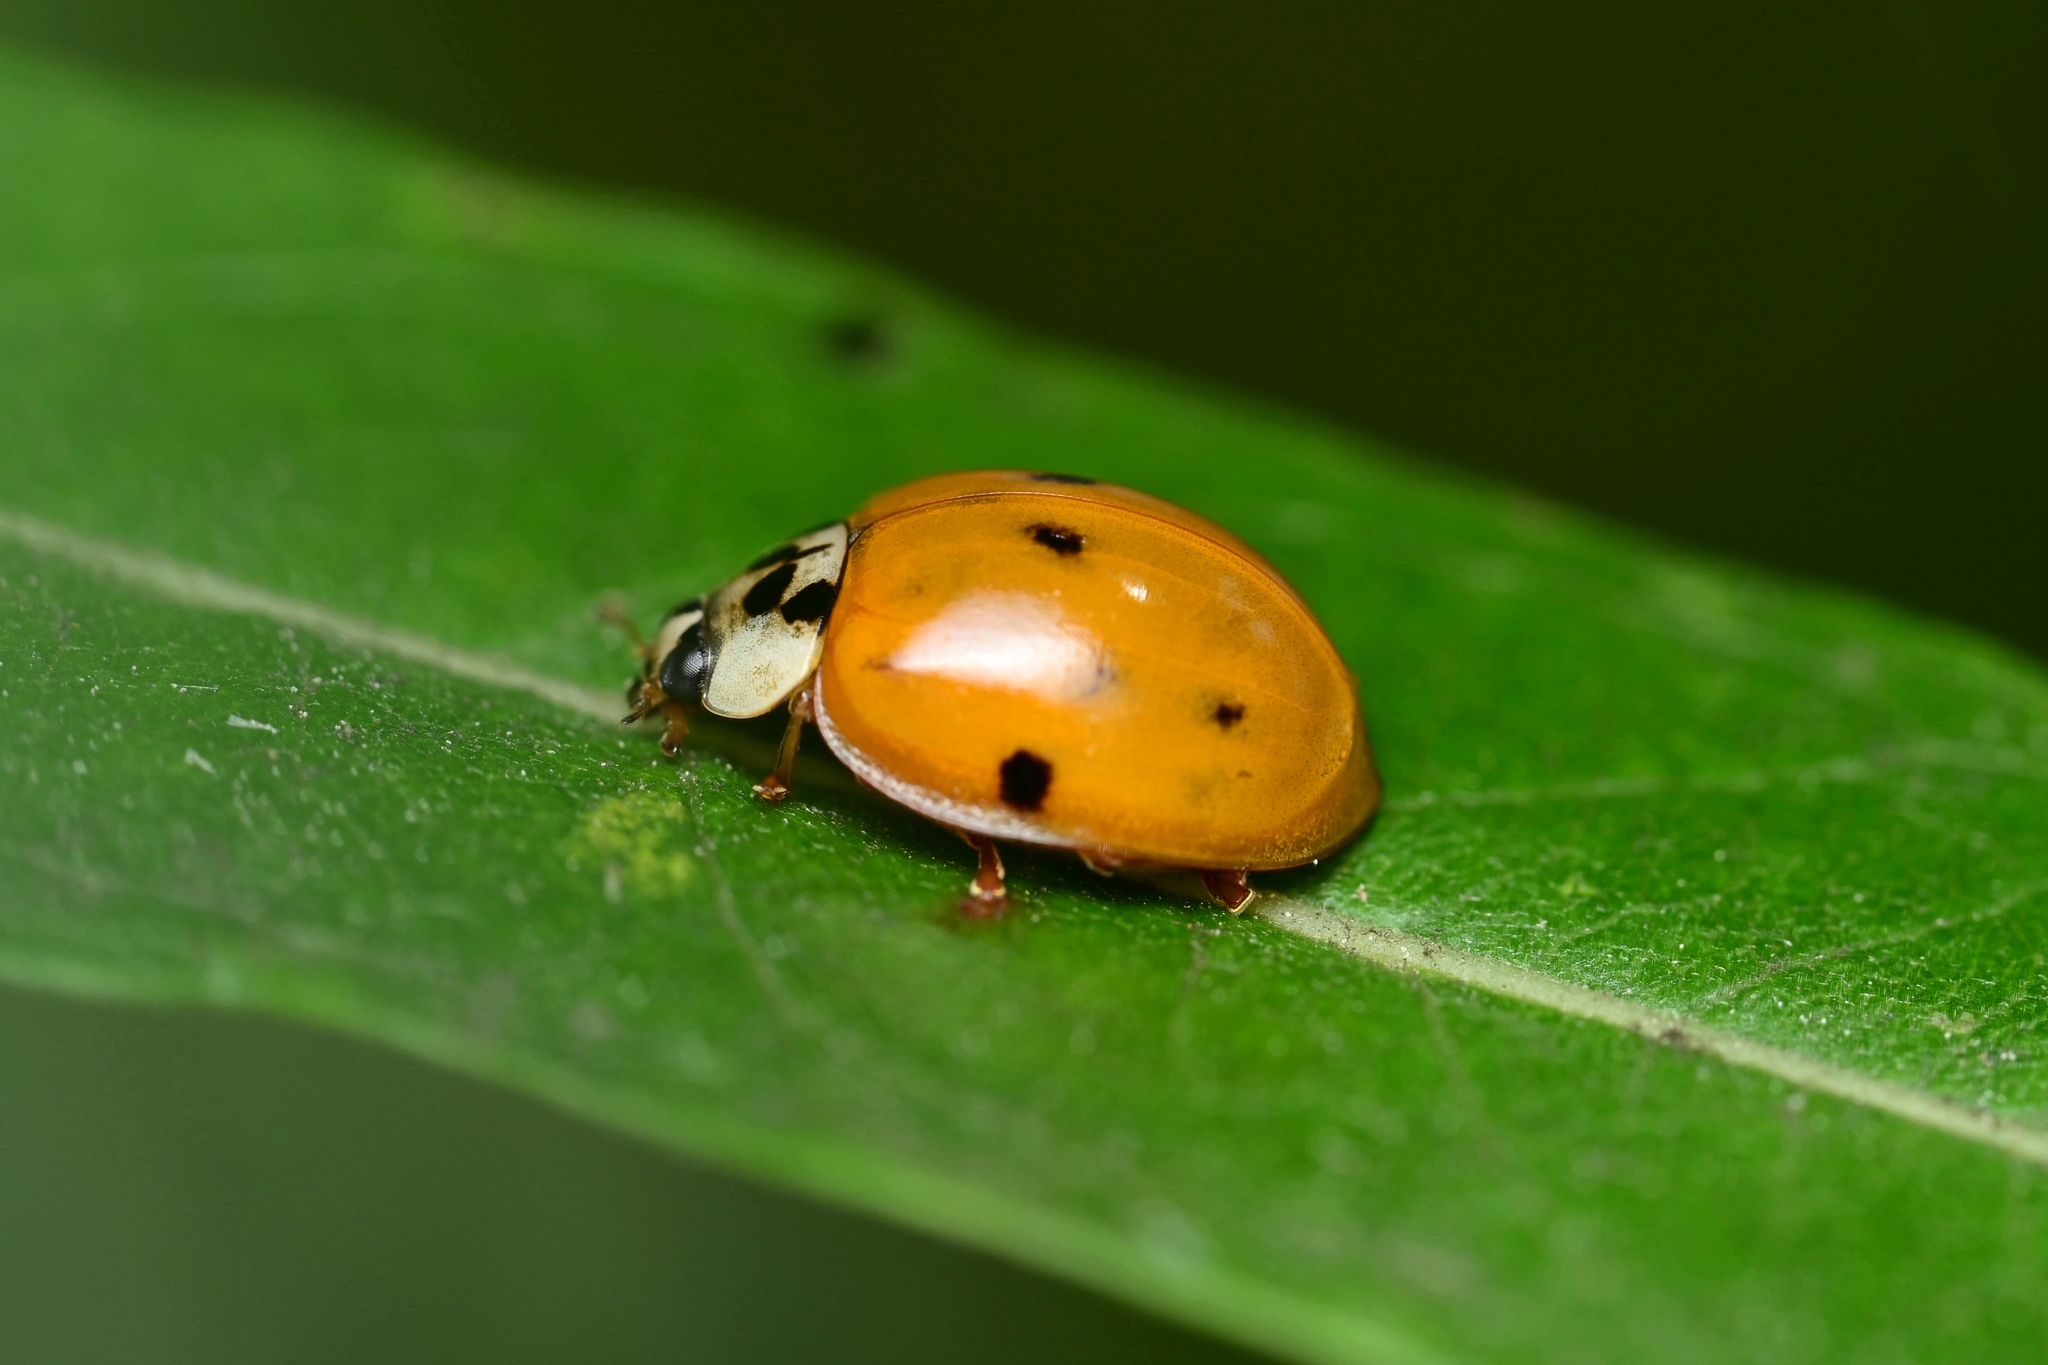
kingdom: Animalia
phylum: Arthropoda
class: Insecta
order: Coleoptera
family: Coccinellidae
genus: Harmonia
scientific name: Harmonia axyridis
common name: Harlequin ladybird
